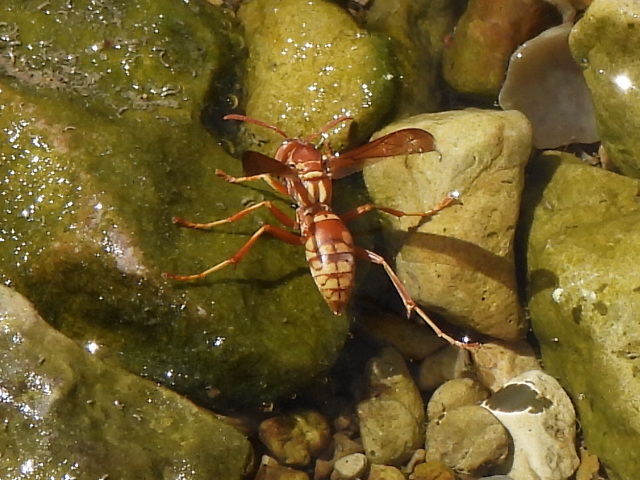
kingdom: Animalia
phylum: Arthropoda
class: Insecta
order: Hymenoptera
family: Eumenidae
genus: Polistes
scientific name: Polistes apachus
